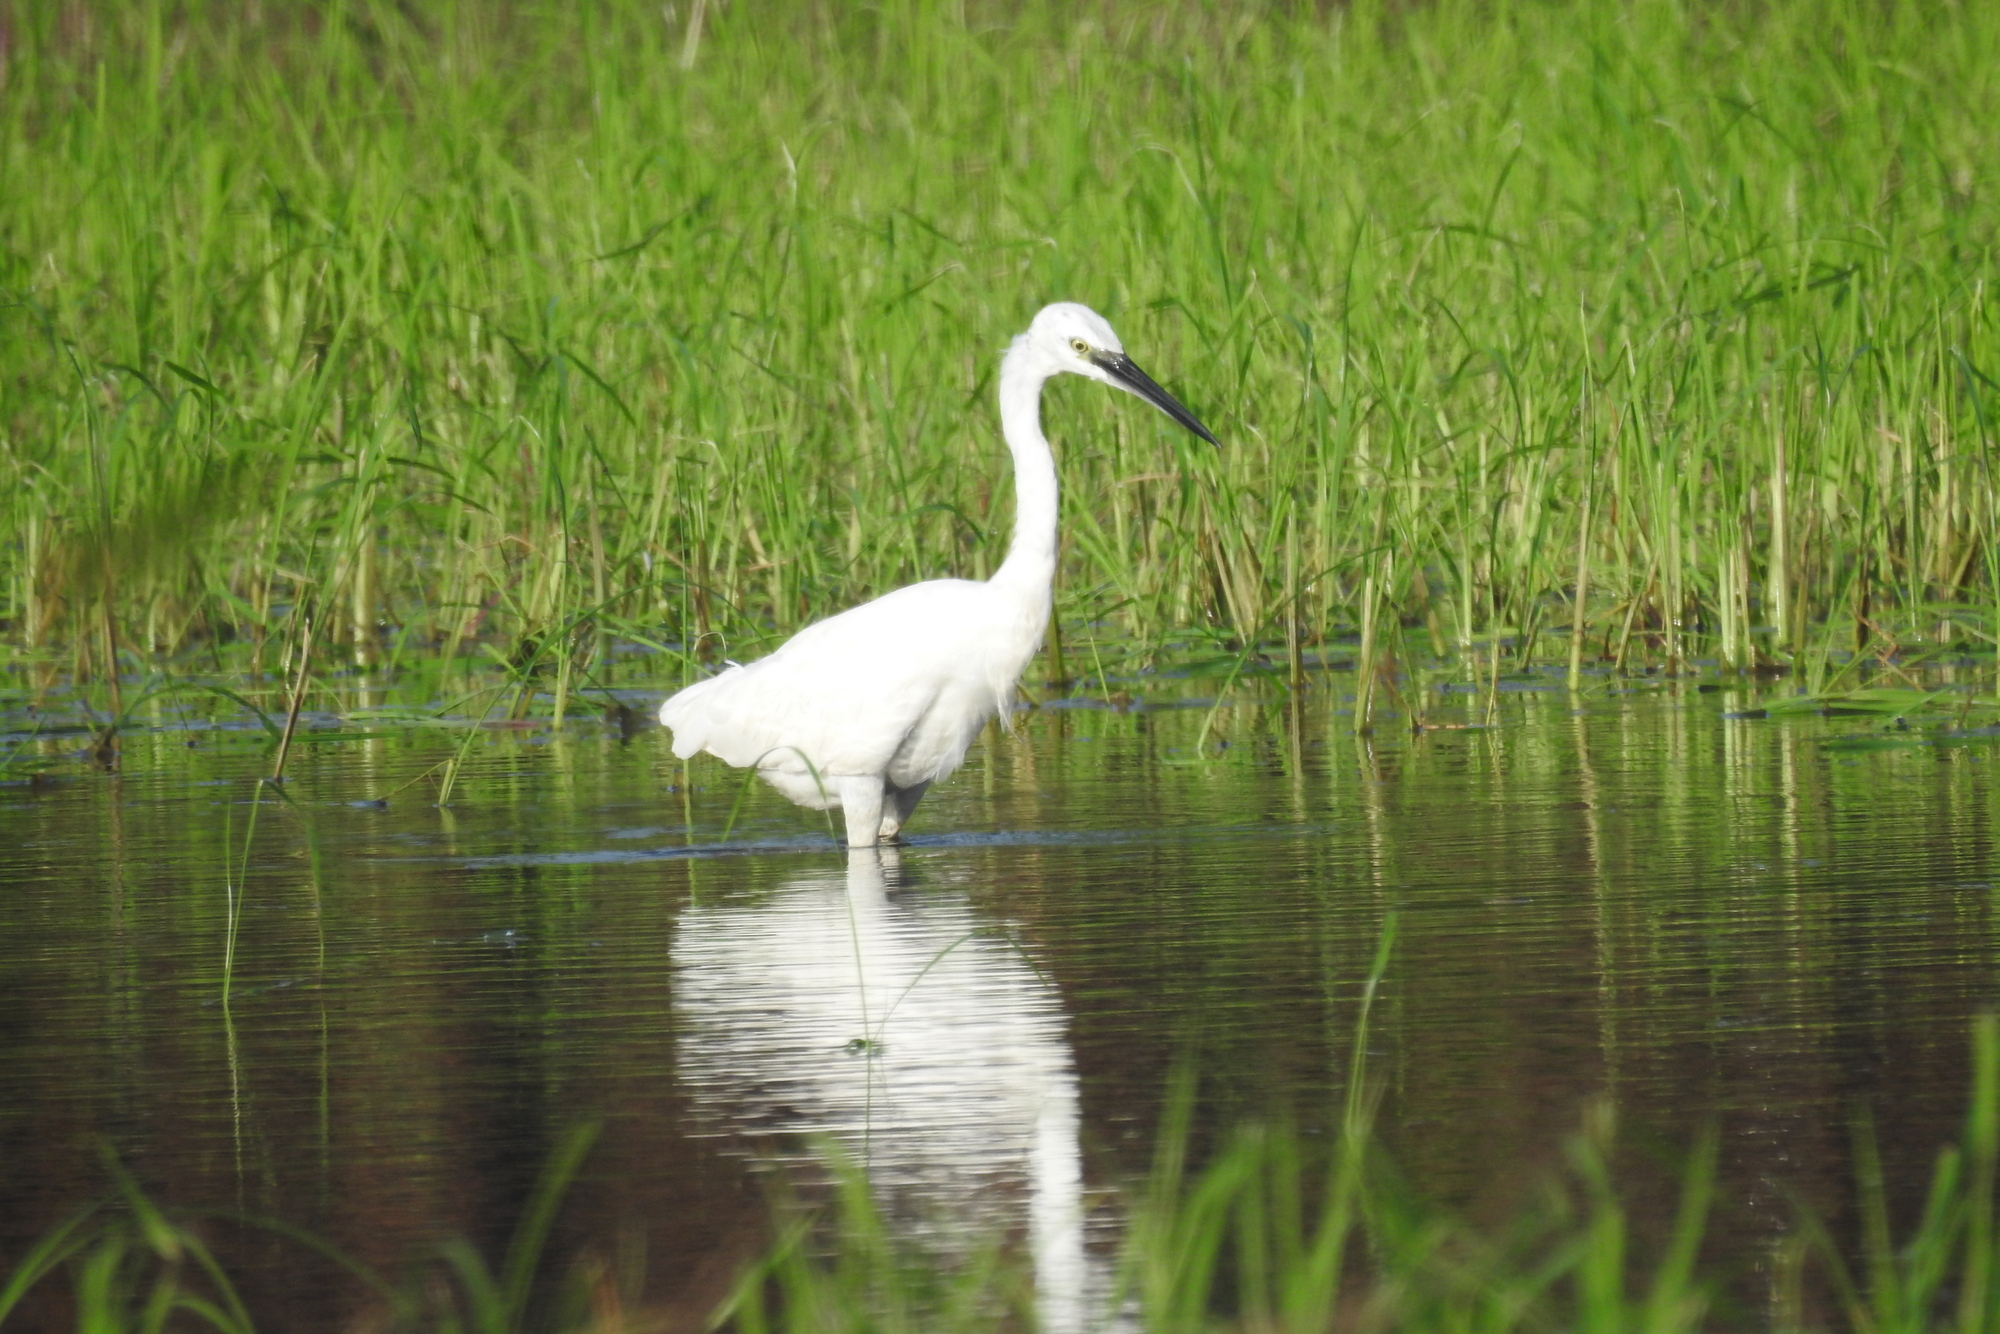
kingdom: Animalia
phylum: Chordata
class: Aves
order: Pelecaniformes
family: Ardeidae
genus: Egretta
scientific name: Egretta garzetta
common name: Little egret
